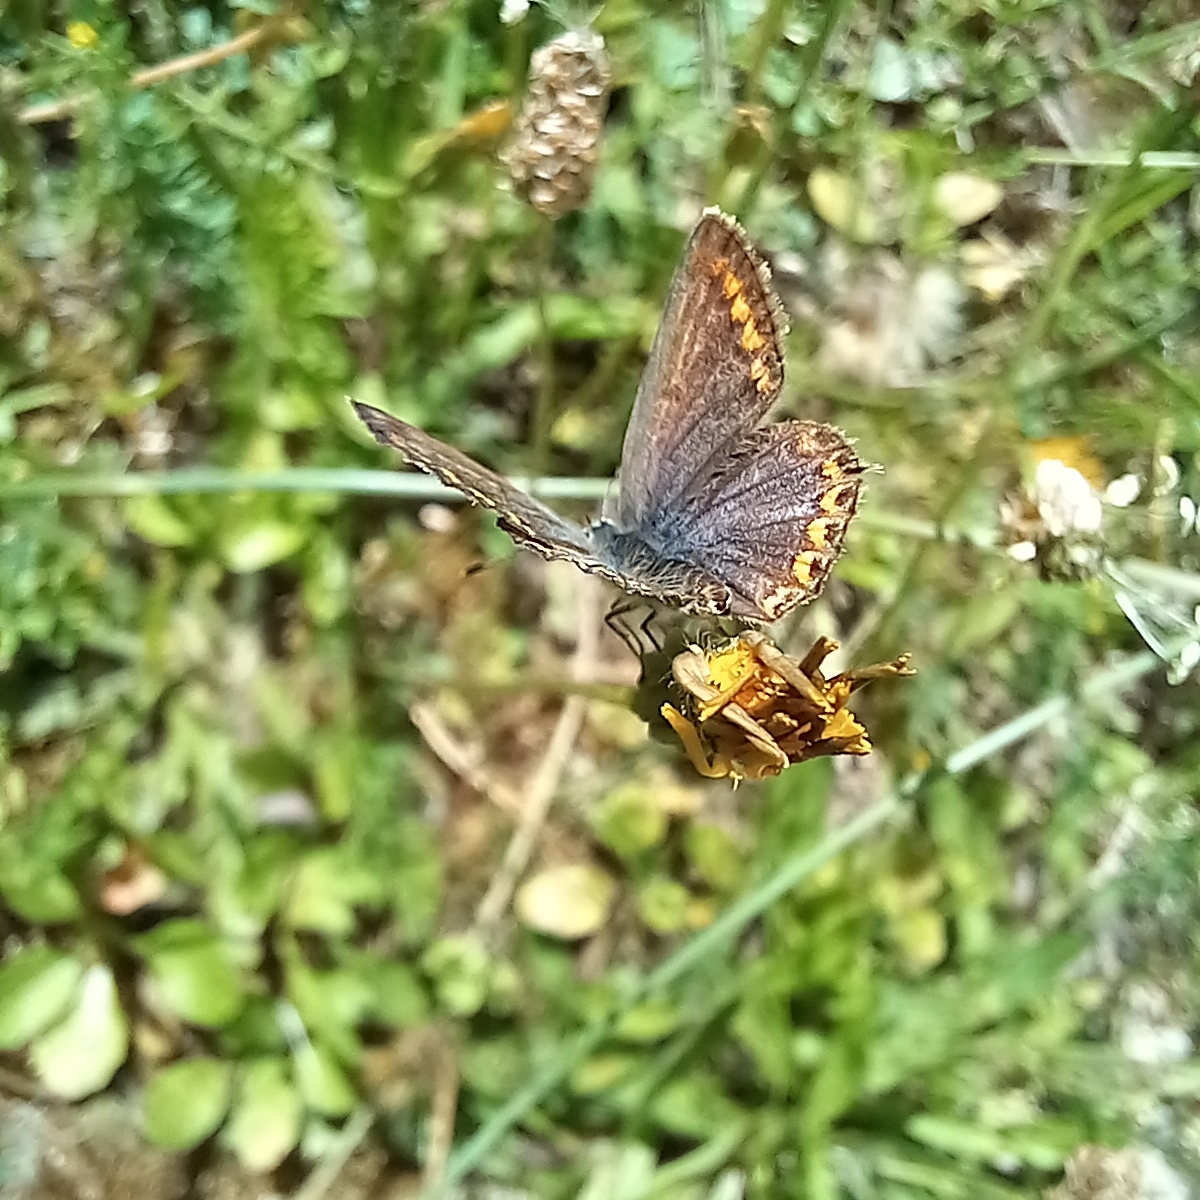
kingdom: Animalia
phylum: Arthropoda
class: Insecta
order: Lepidoptera
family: Lycaenidae
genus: Polyommatus
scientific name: Polyommatus icarus
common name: Common blue
